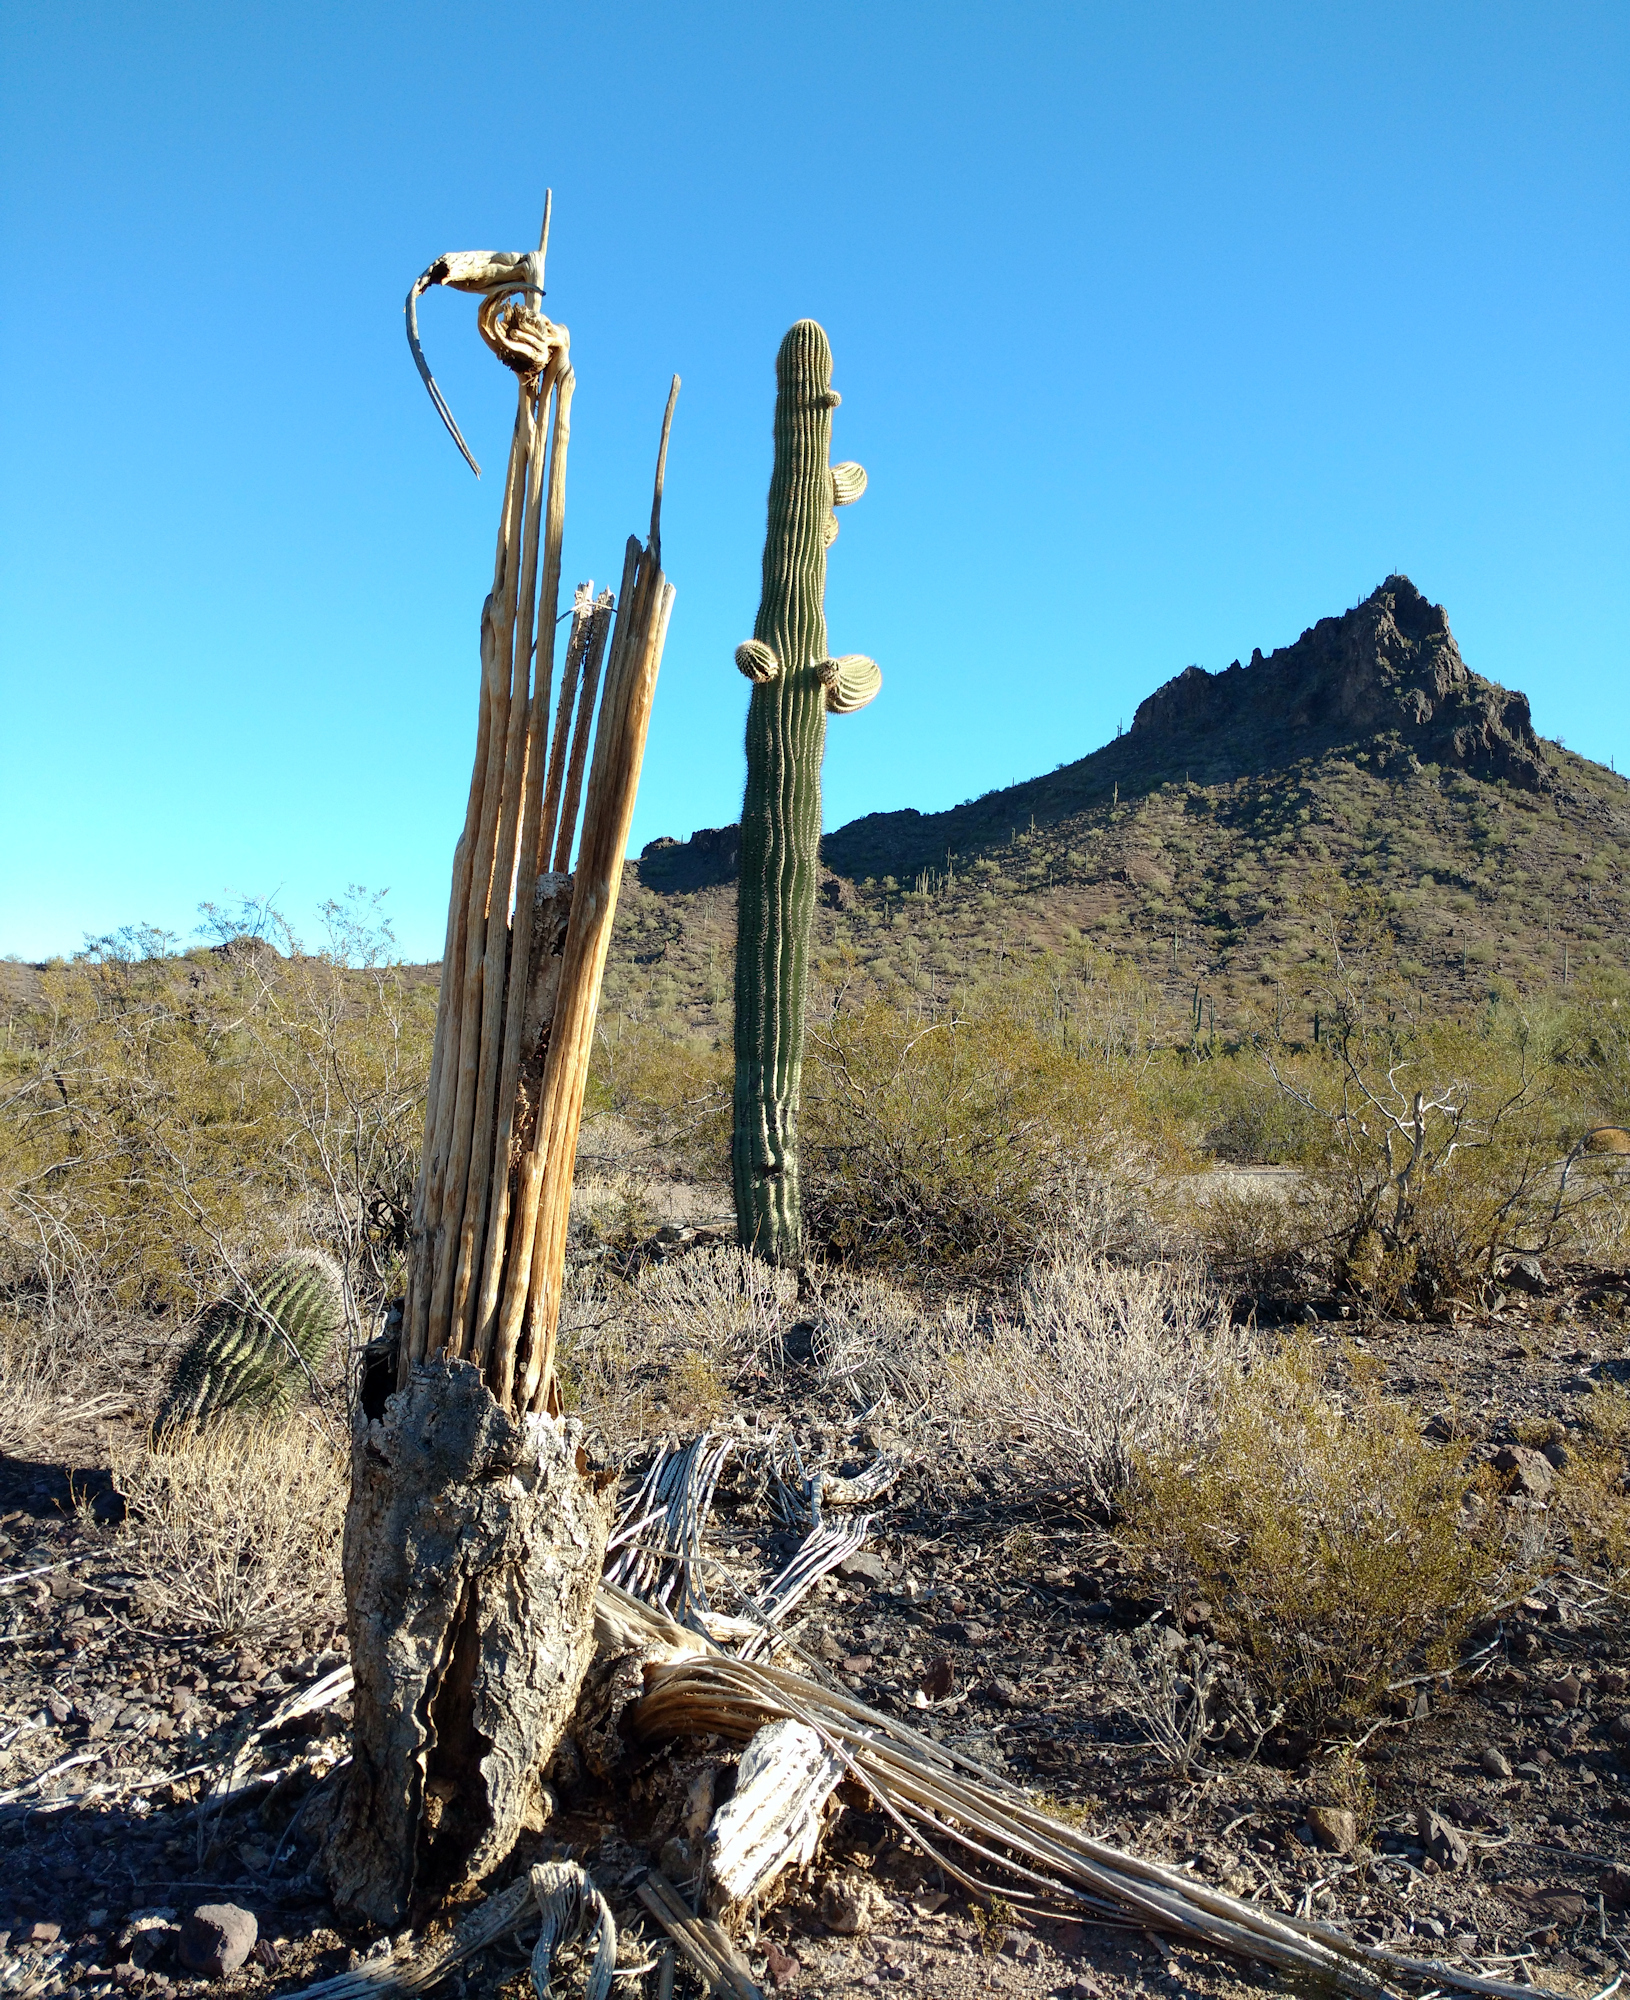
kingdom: Plantae
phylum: Tracheophyta
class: Magnoliopsida
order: Caryophyllales
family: Cactaceae
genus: Carnegiea
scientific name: Carnegiea gigantea
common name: Saguaro
